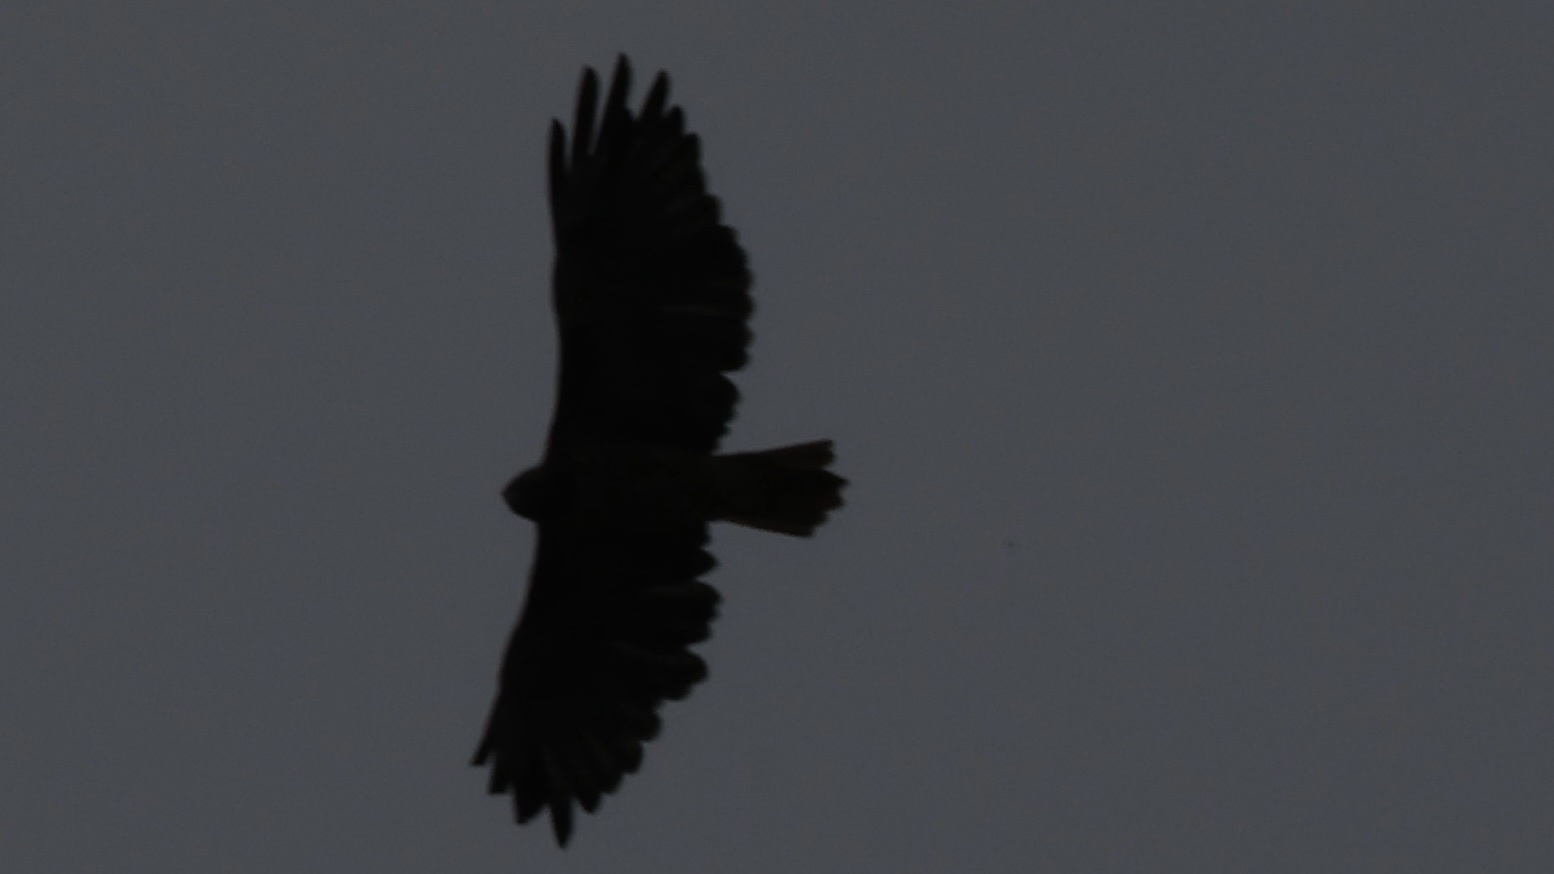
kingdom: Animalia
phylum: Chordata
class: Aves
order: Accipitriformes
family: Accipitridae
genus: Buteo
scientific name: Buteo jamaicensis
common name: Red-tailed hawk
